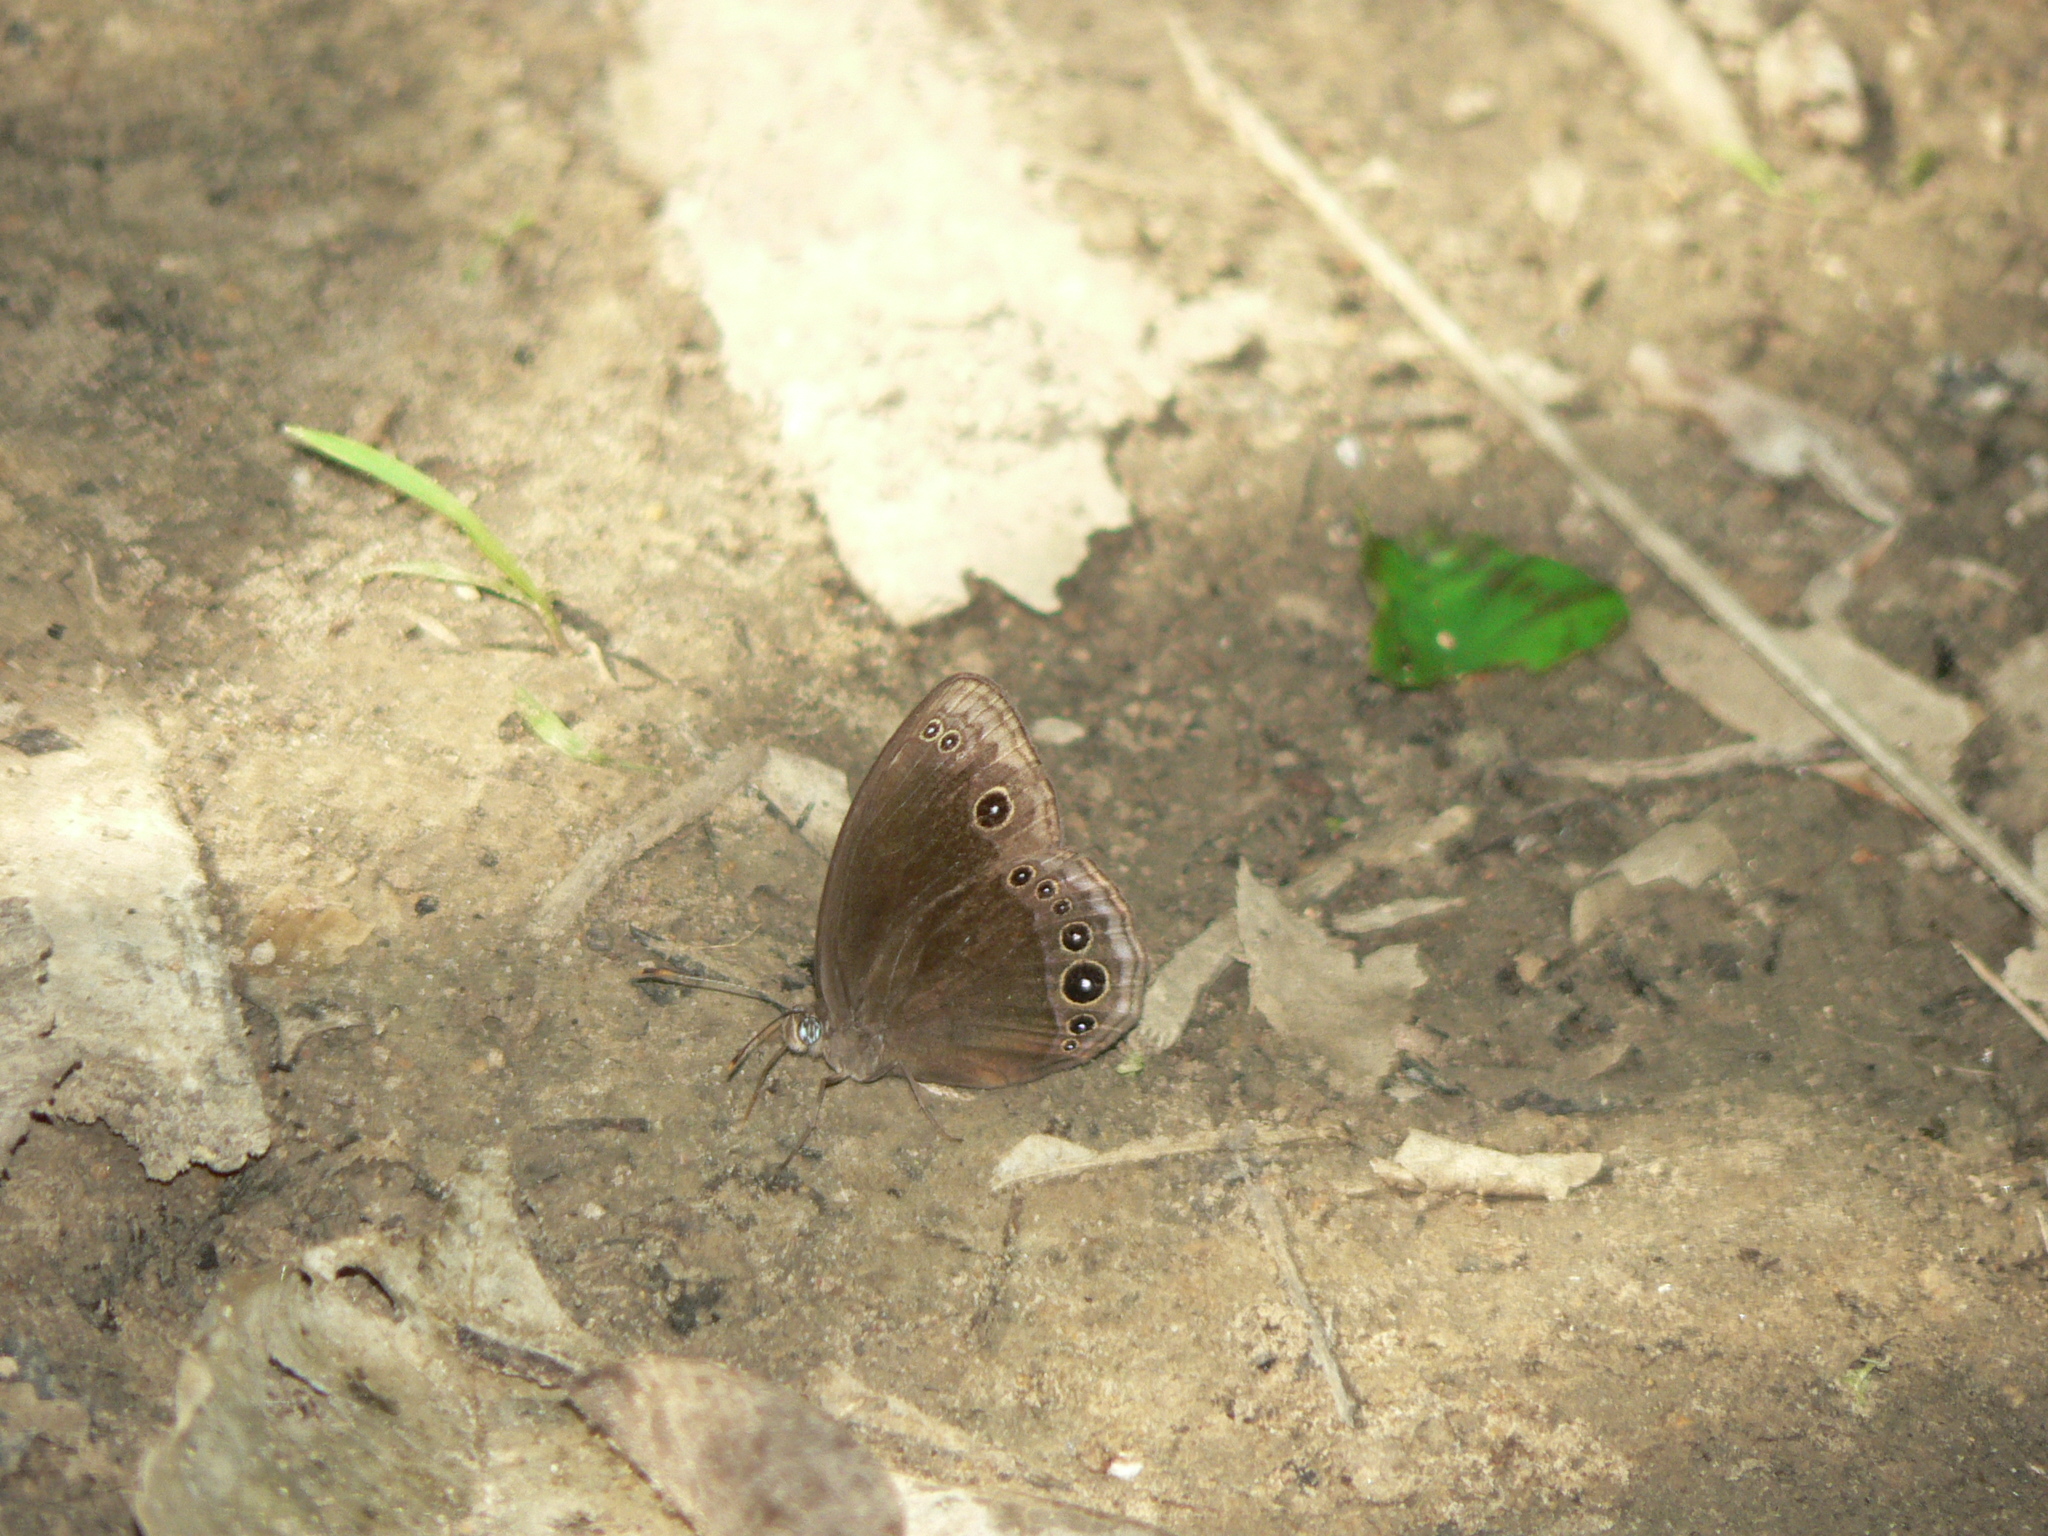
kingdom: Animalia
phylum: Arthropoda
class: Insecta
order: Lepidoptera
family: Nymphalidae
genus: Mycalesis
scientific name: Mycalesis adamsoni
